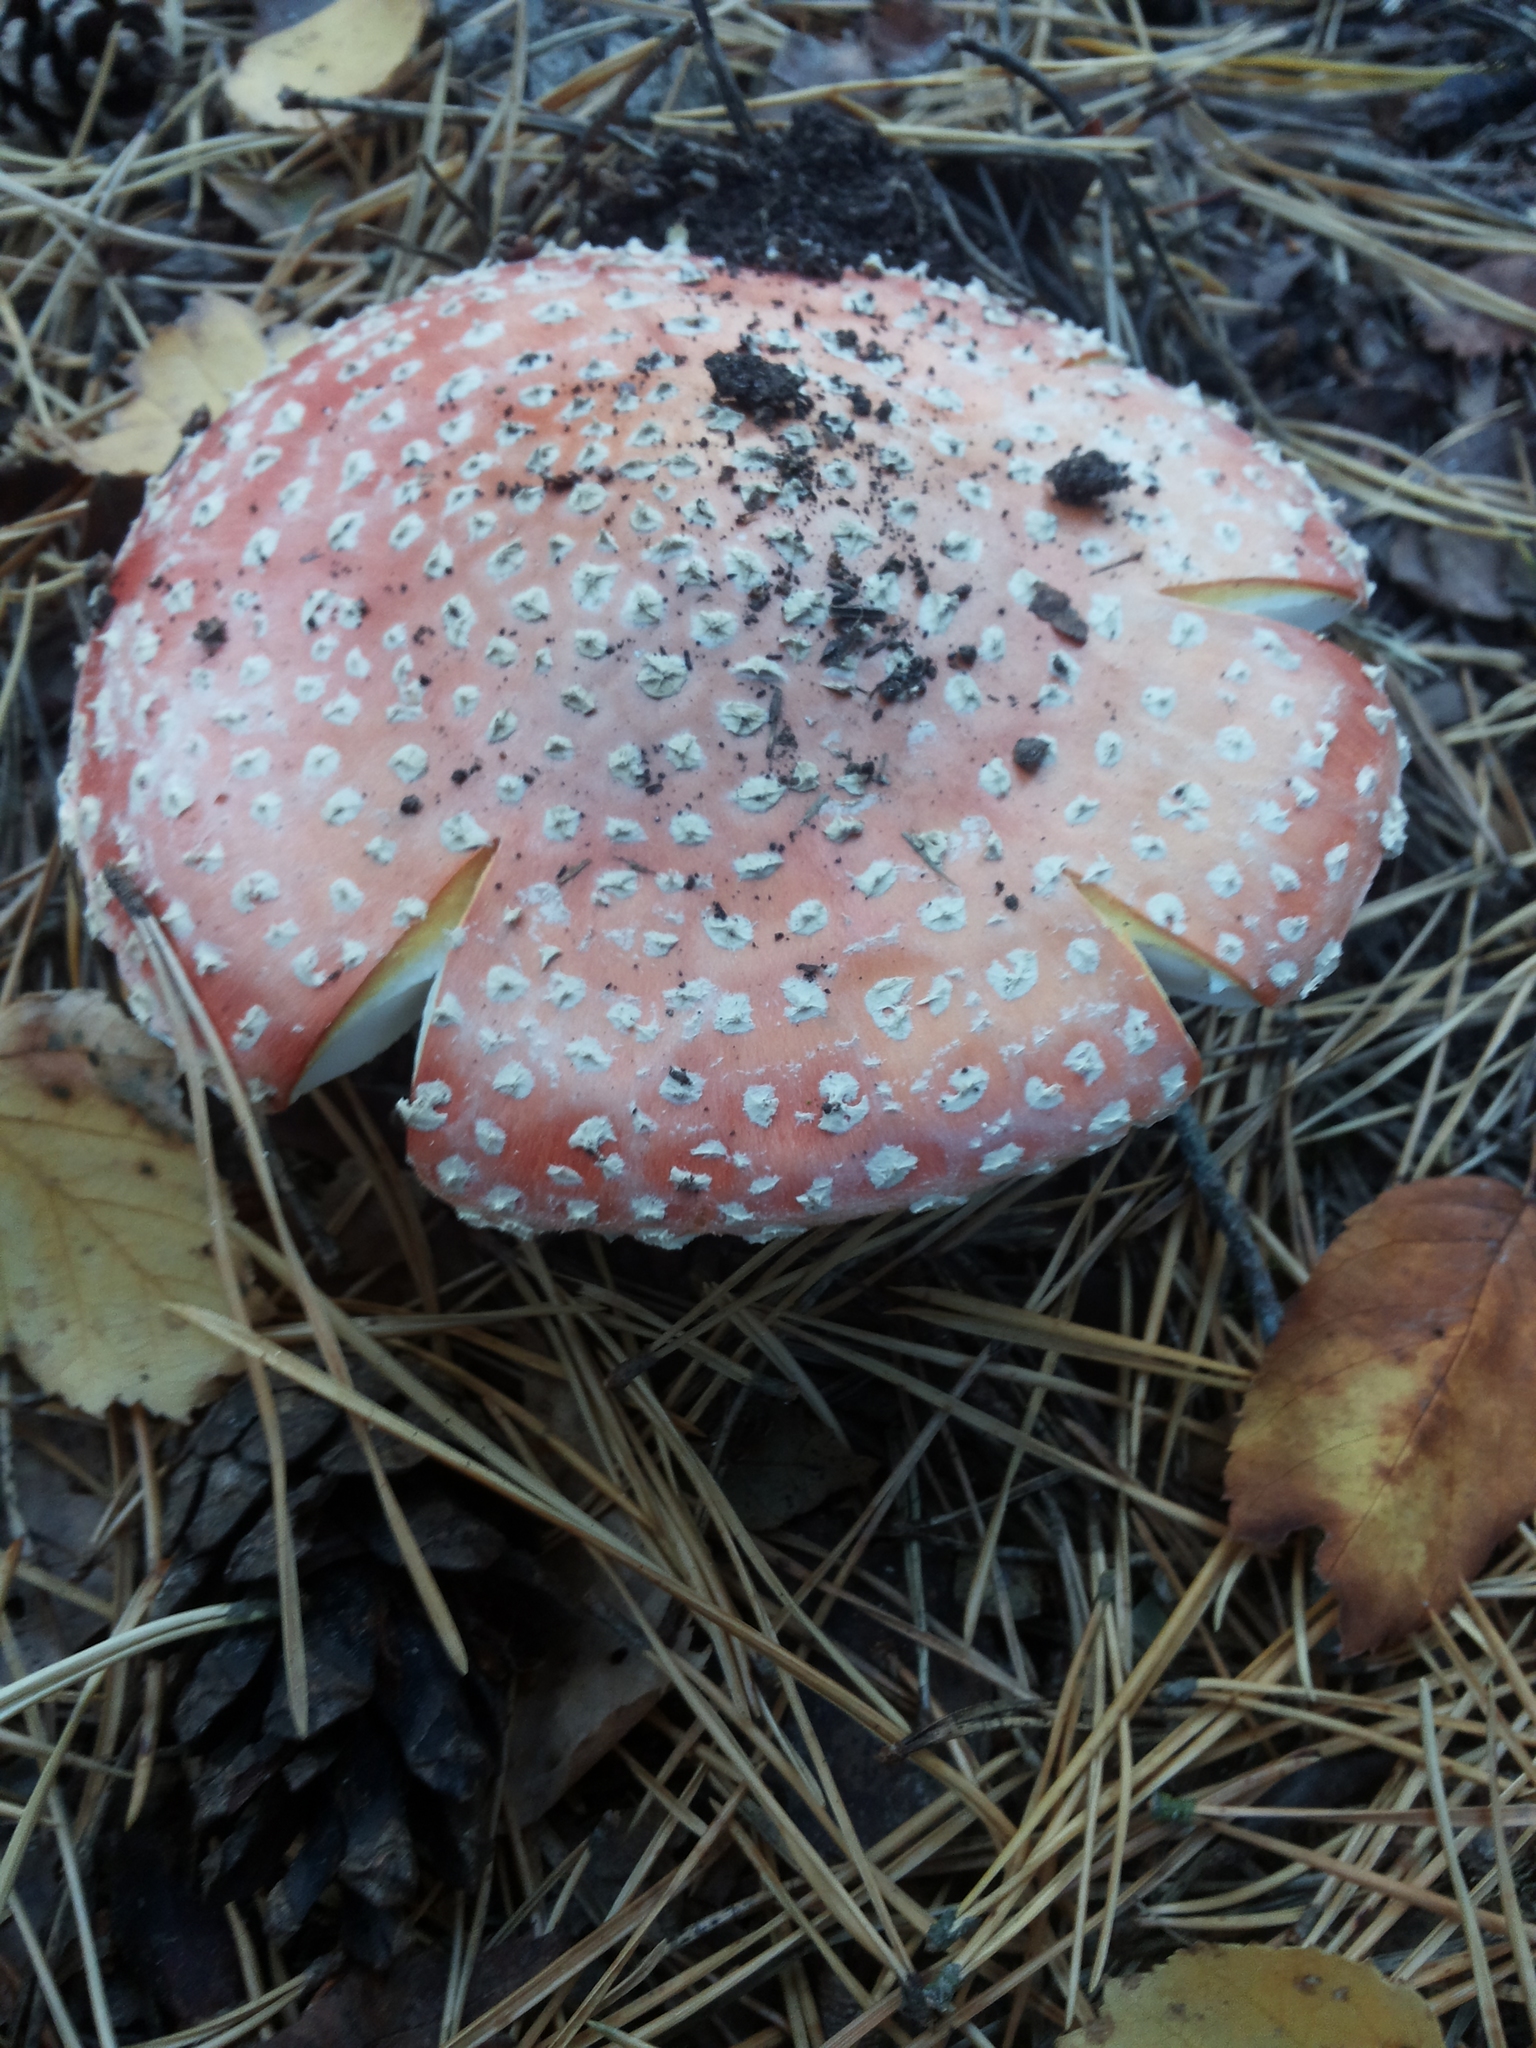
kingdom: Fungi
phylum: Basidiomycota
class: Agaricomycetes
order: Agaricales
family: Amanitaceae
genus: Amanita
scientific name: Amanita muscaria
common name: Fly agaric
